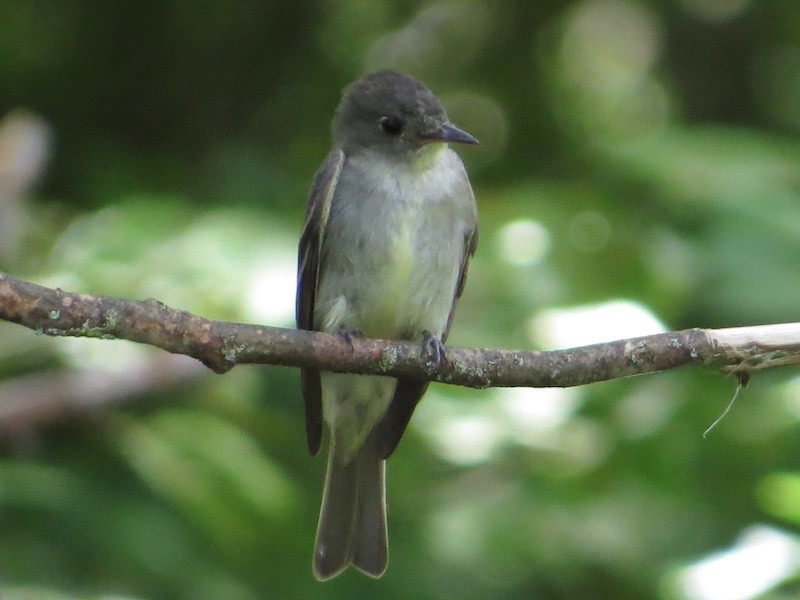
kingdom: Animalia
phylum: Chordata
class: Aves
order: Passeriformes
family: Tyrannidae
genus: Contopus
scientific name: Contopus virens
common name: Eastern wood-pewee
